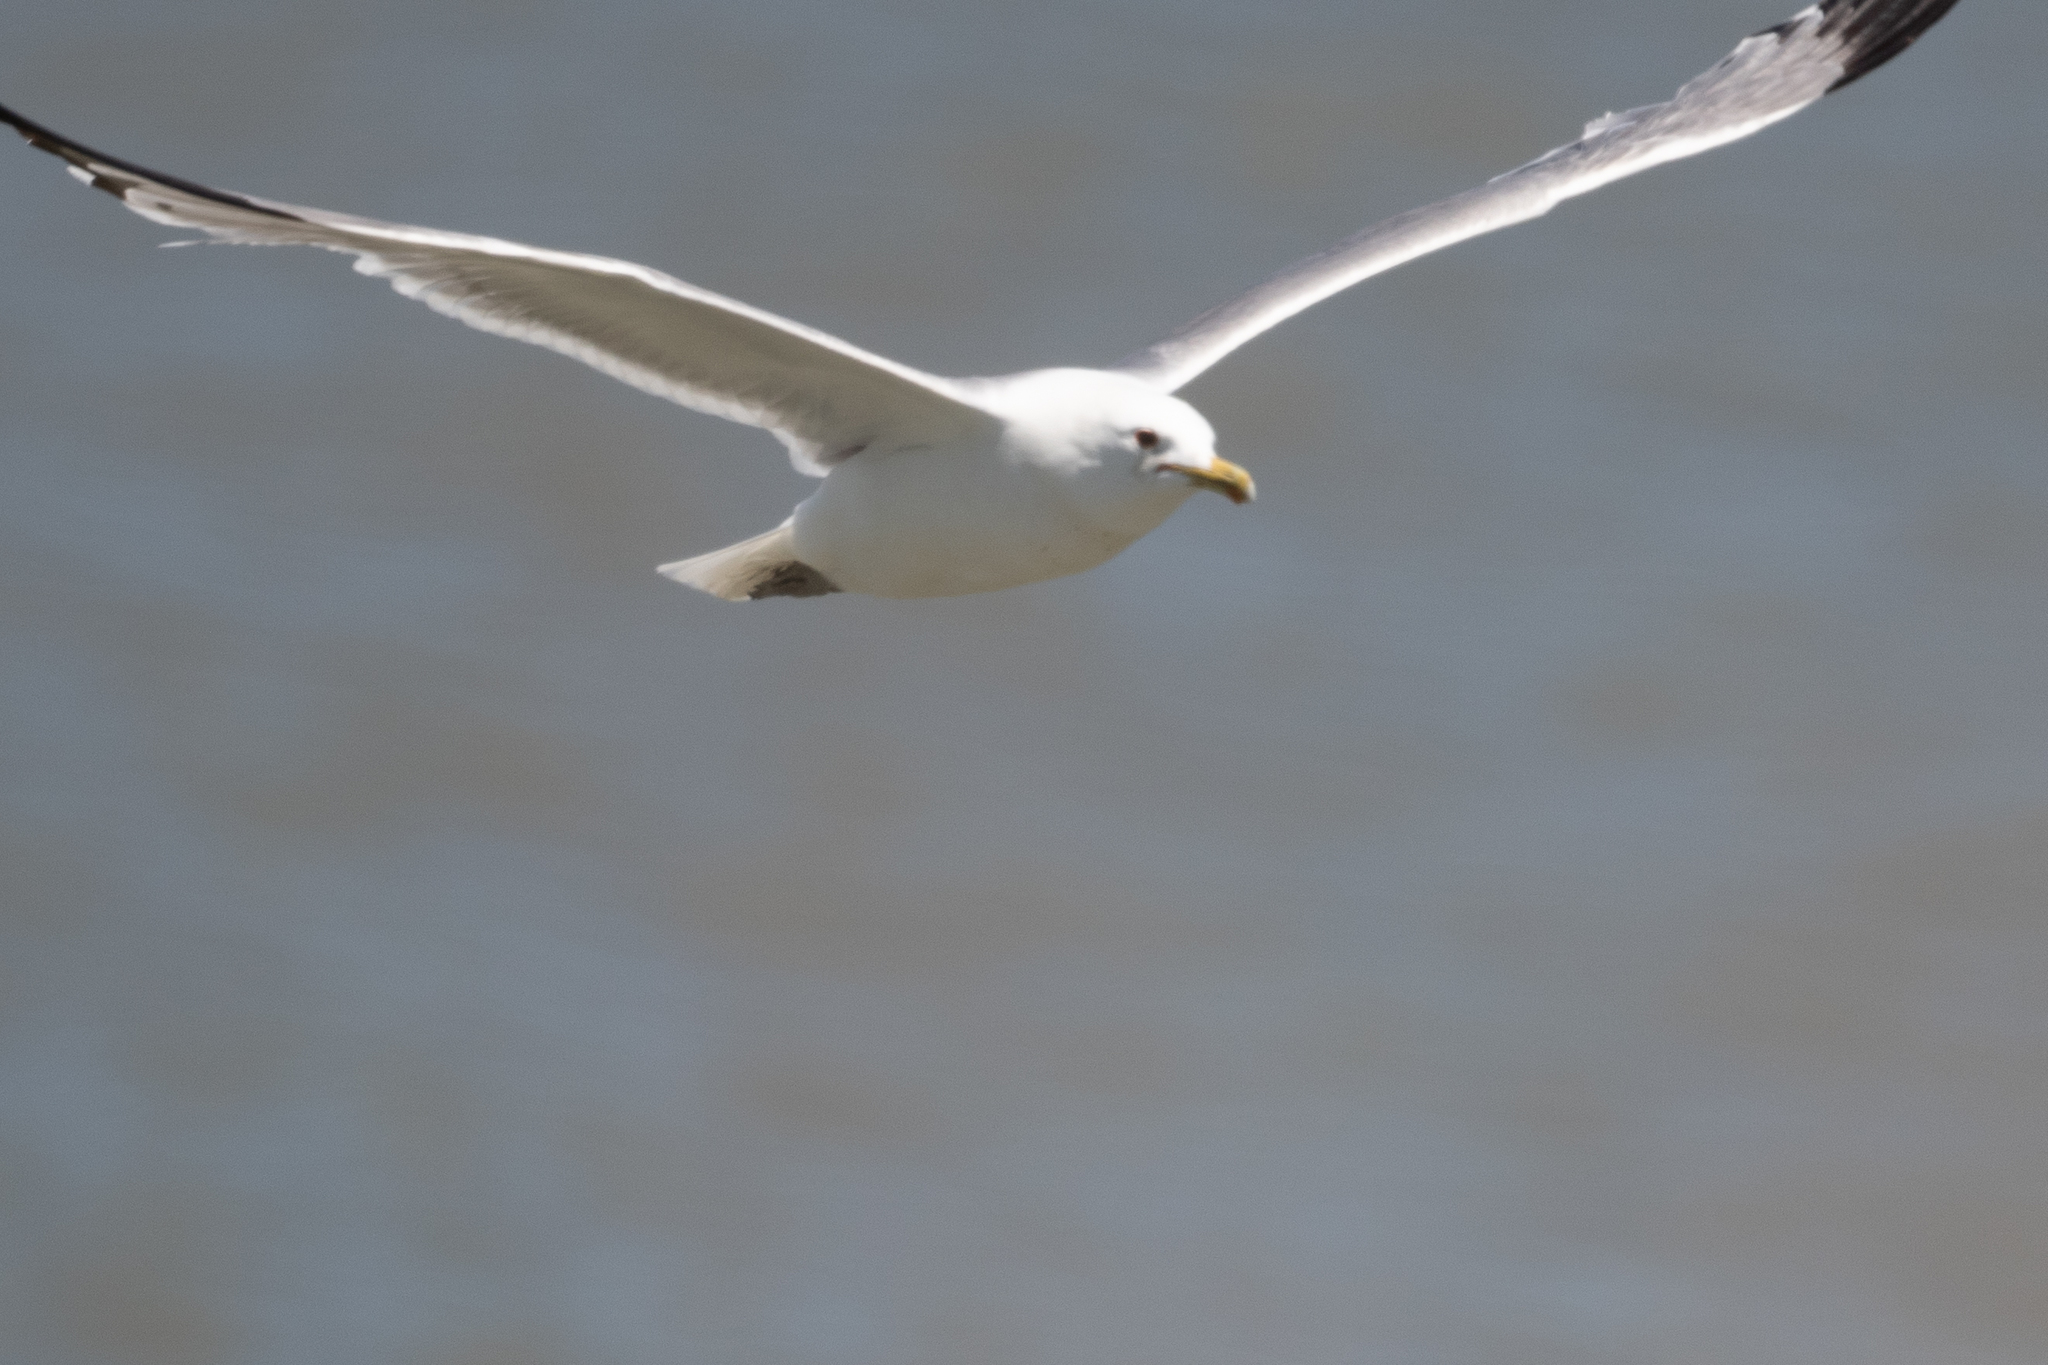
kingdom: Animalia
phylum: Chordata
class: Aves
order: Charadriiformes
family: Laridae
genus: Larus
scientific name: Larus californicus
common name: California gull
